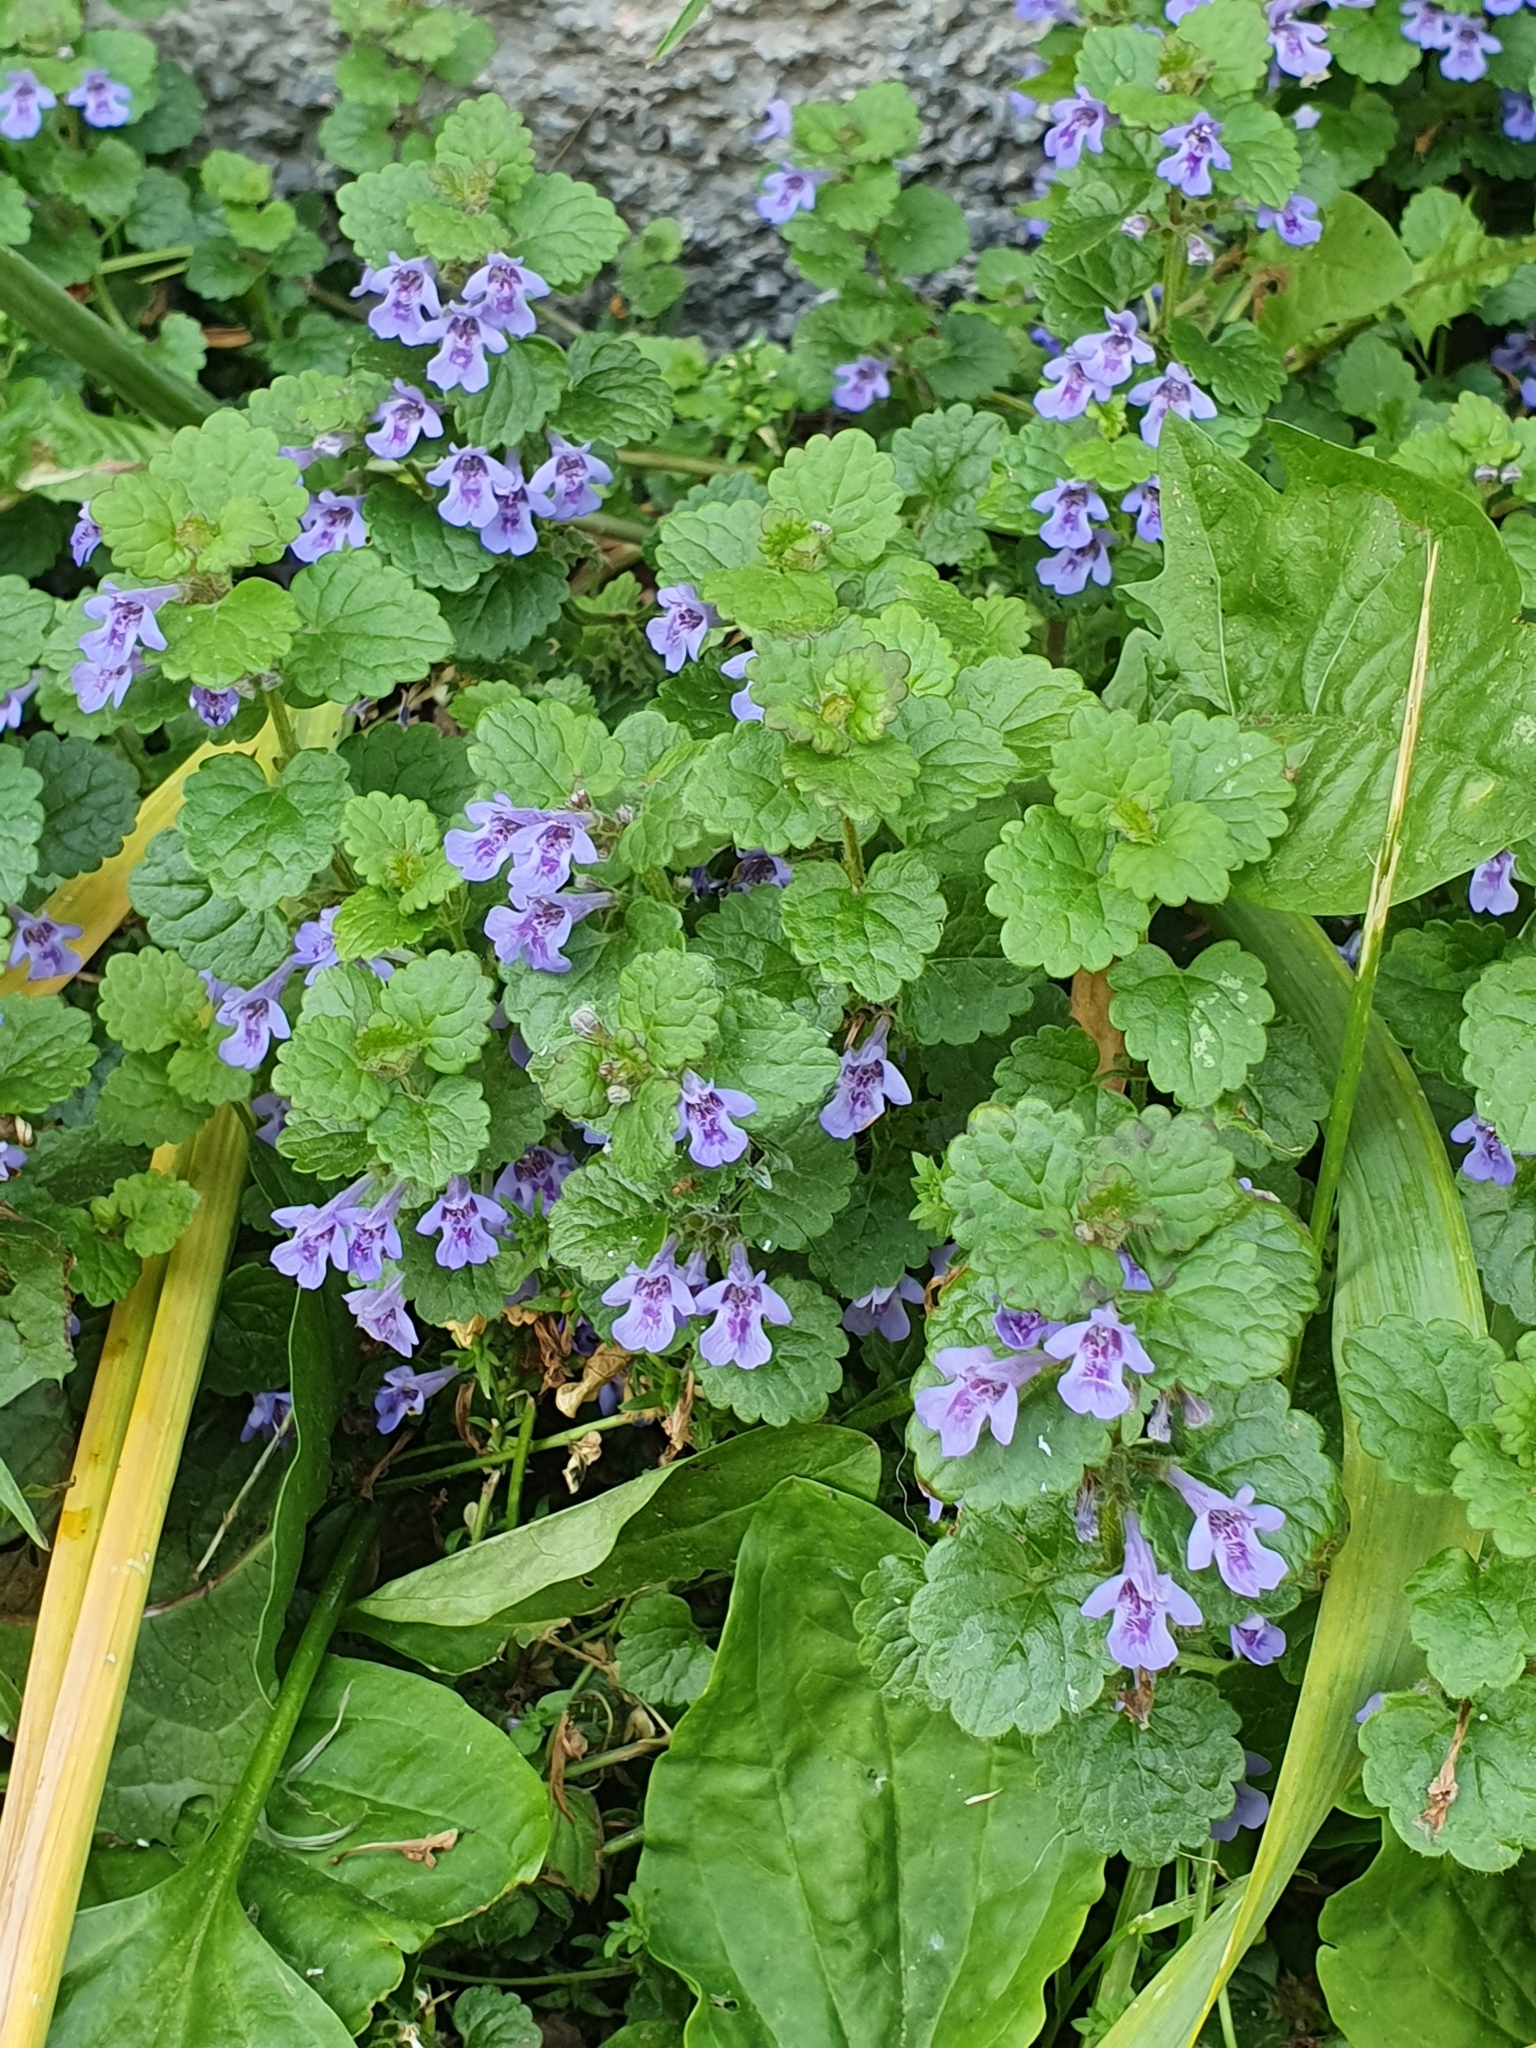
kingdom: Plantae
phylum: Tracheophyta
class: Magnoliopsida
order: Lamiales
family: Lamiaceae
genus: Glechoma
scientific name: Glechoma hederacea
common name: Ground ivy
